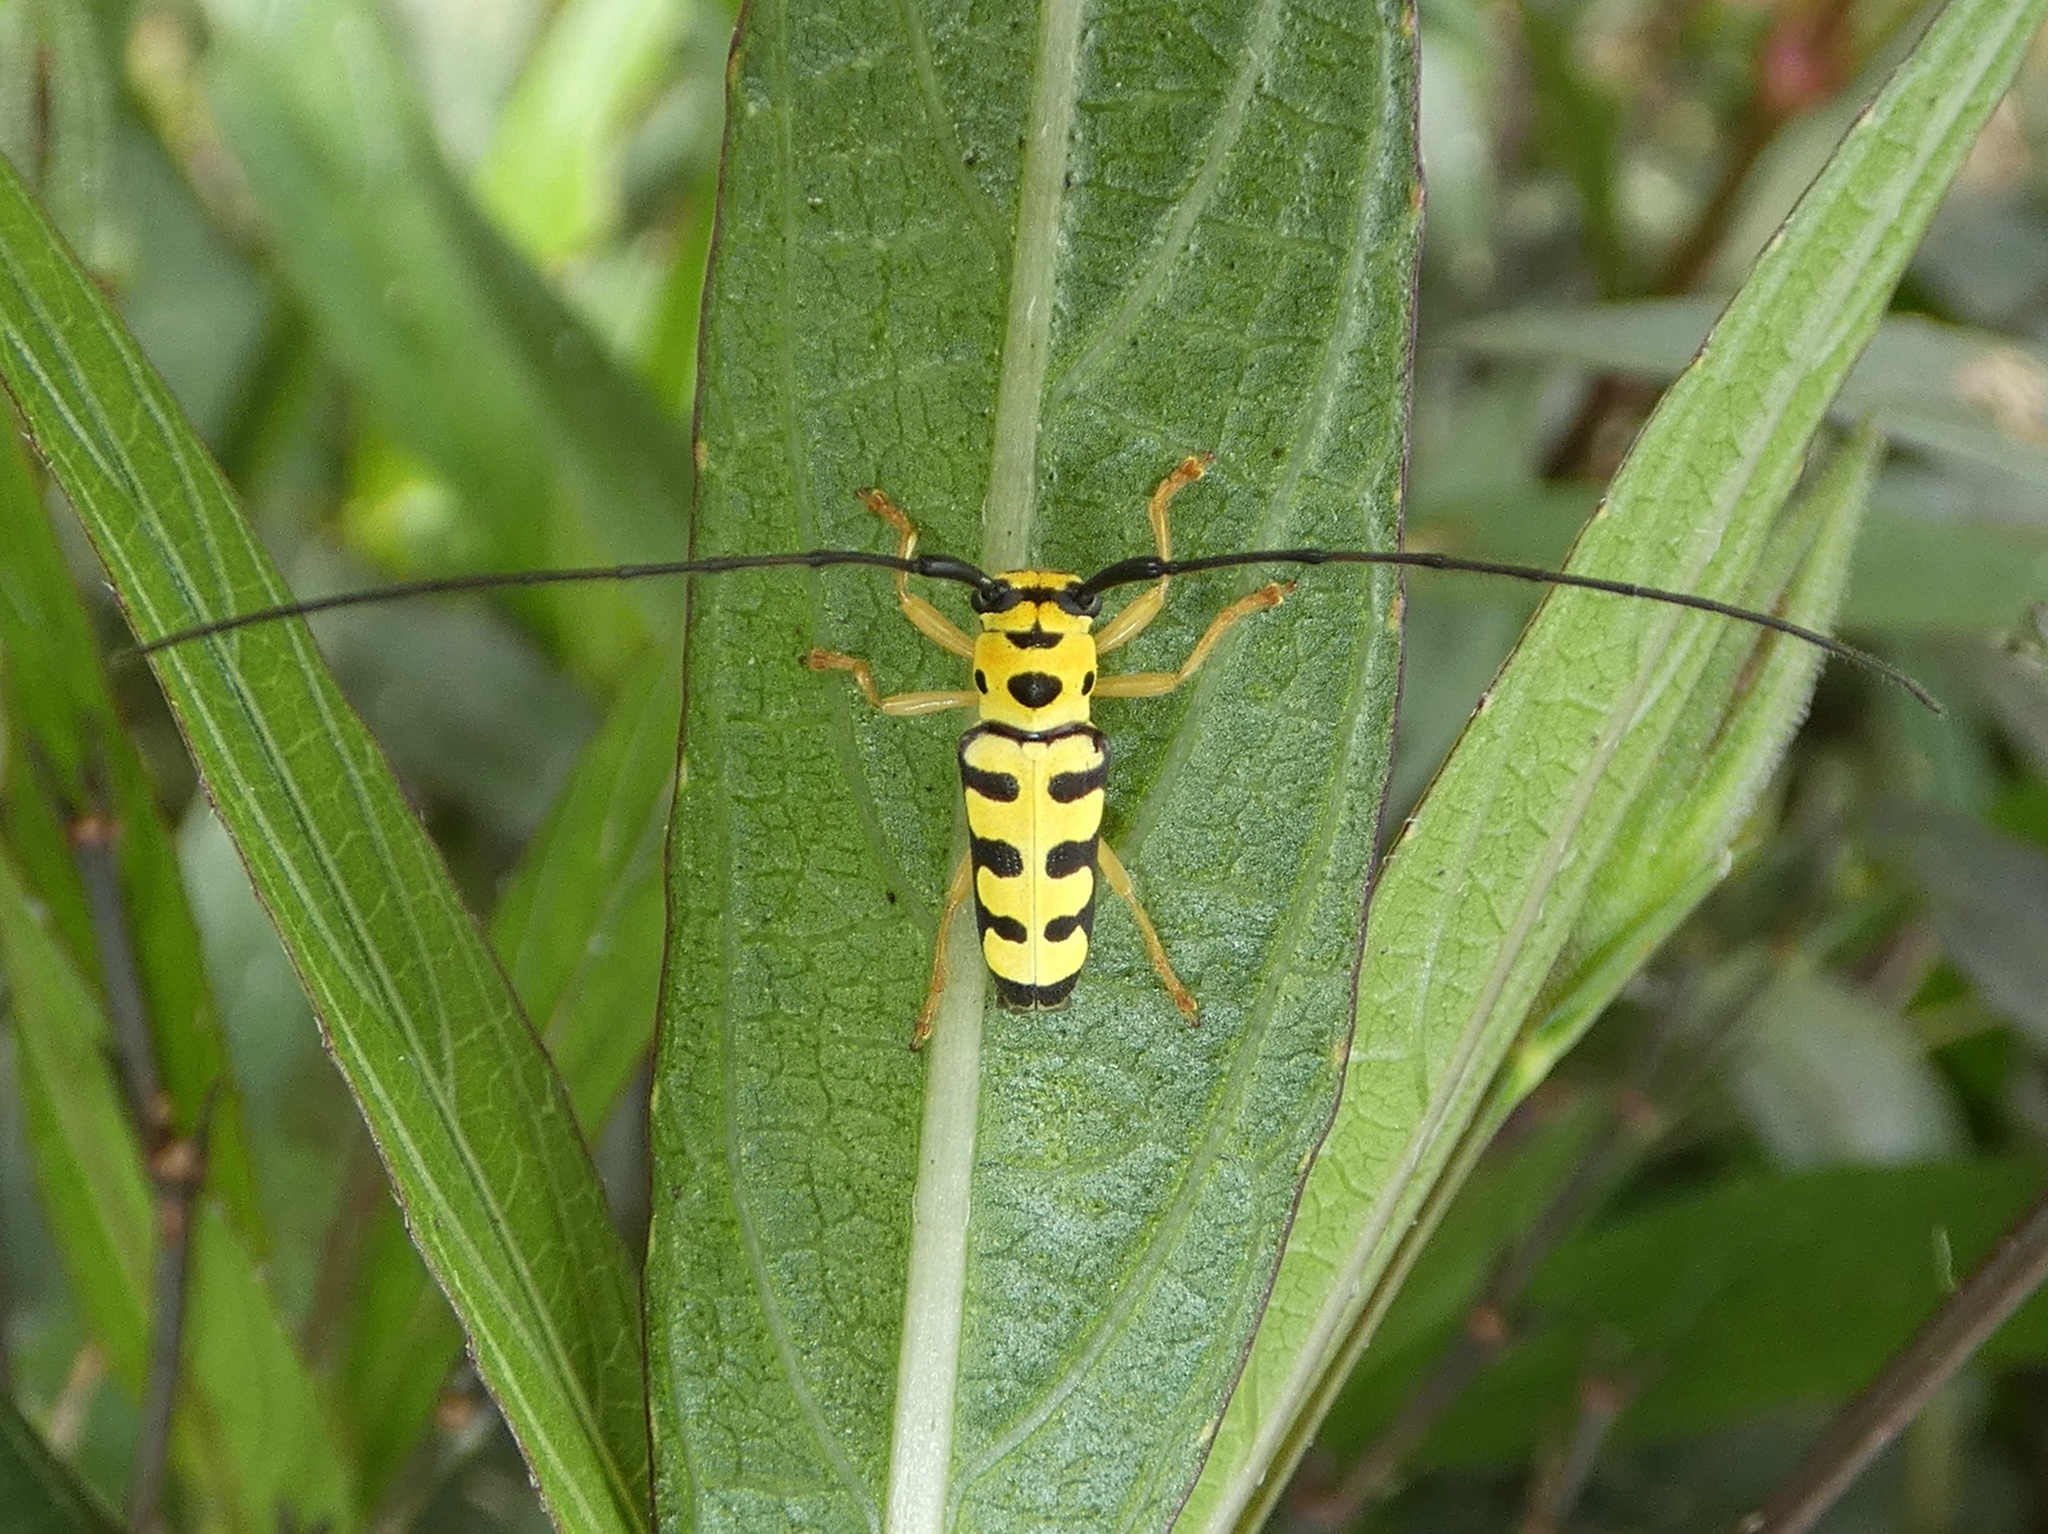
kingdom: Animalia
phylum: Arthropoda
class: Insecta
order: Coleoptera
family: Cerambycidae
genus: Zeale
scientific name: Zeale scalaris
